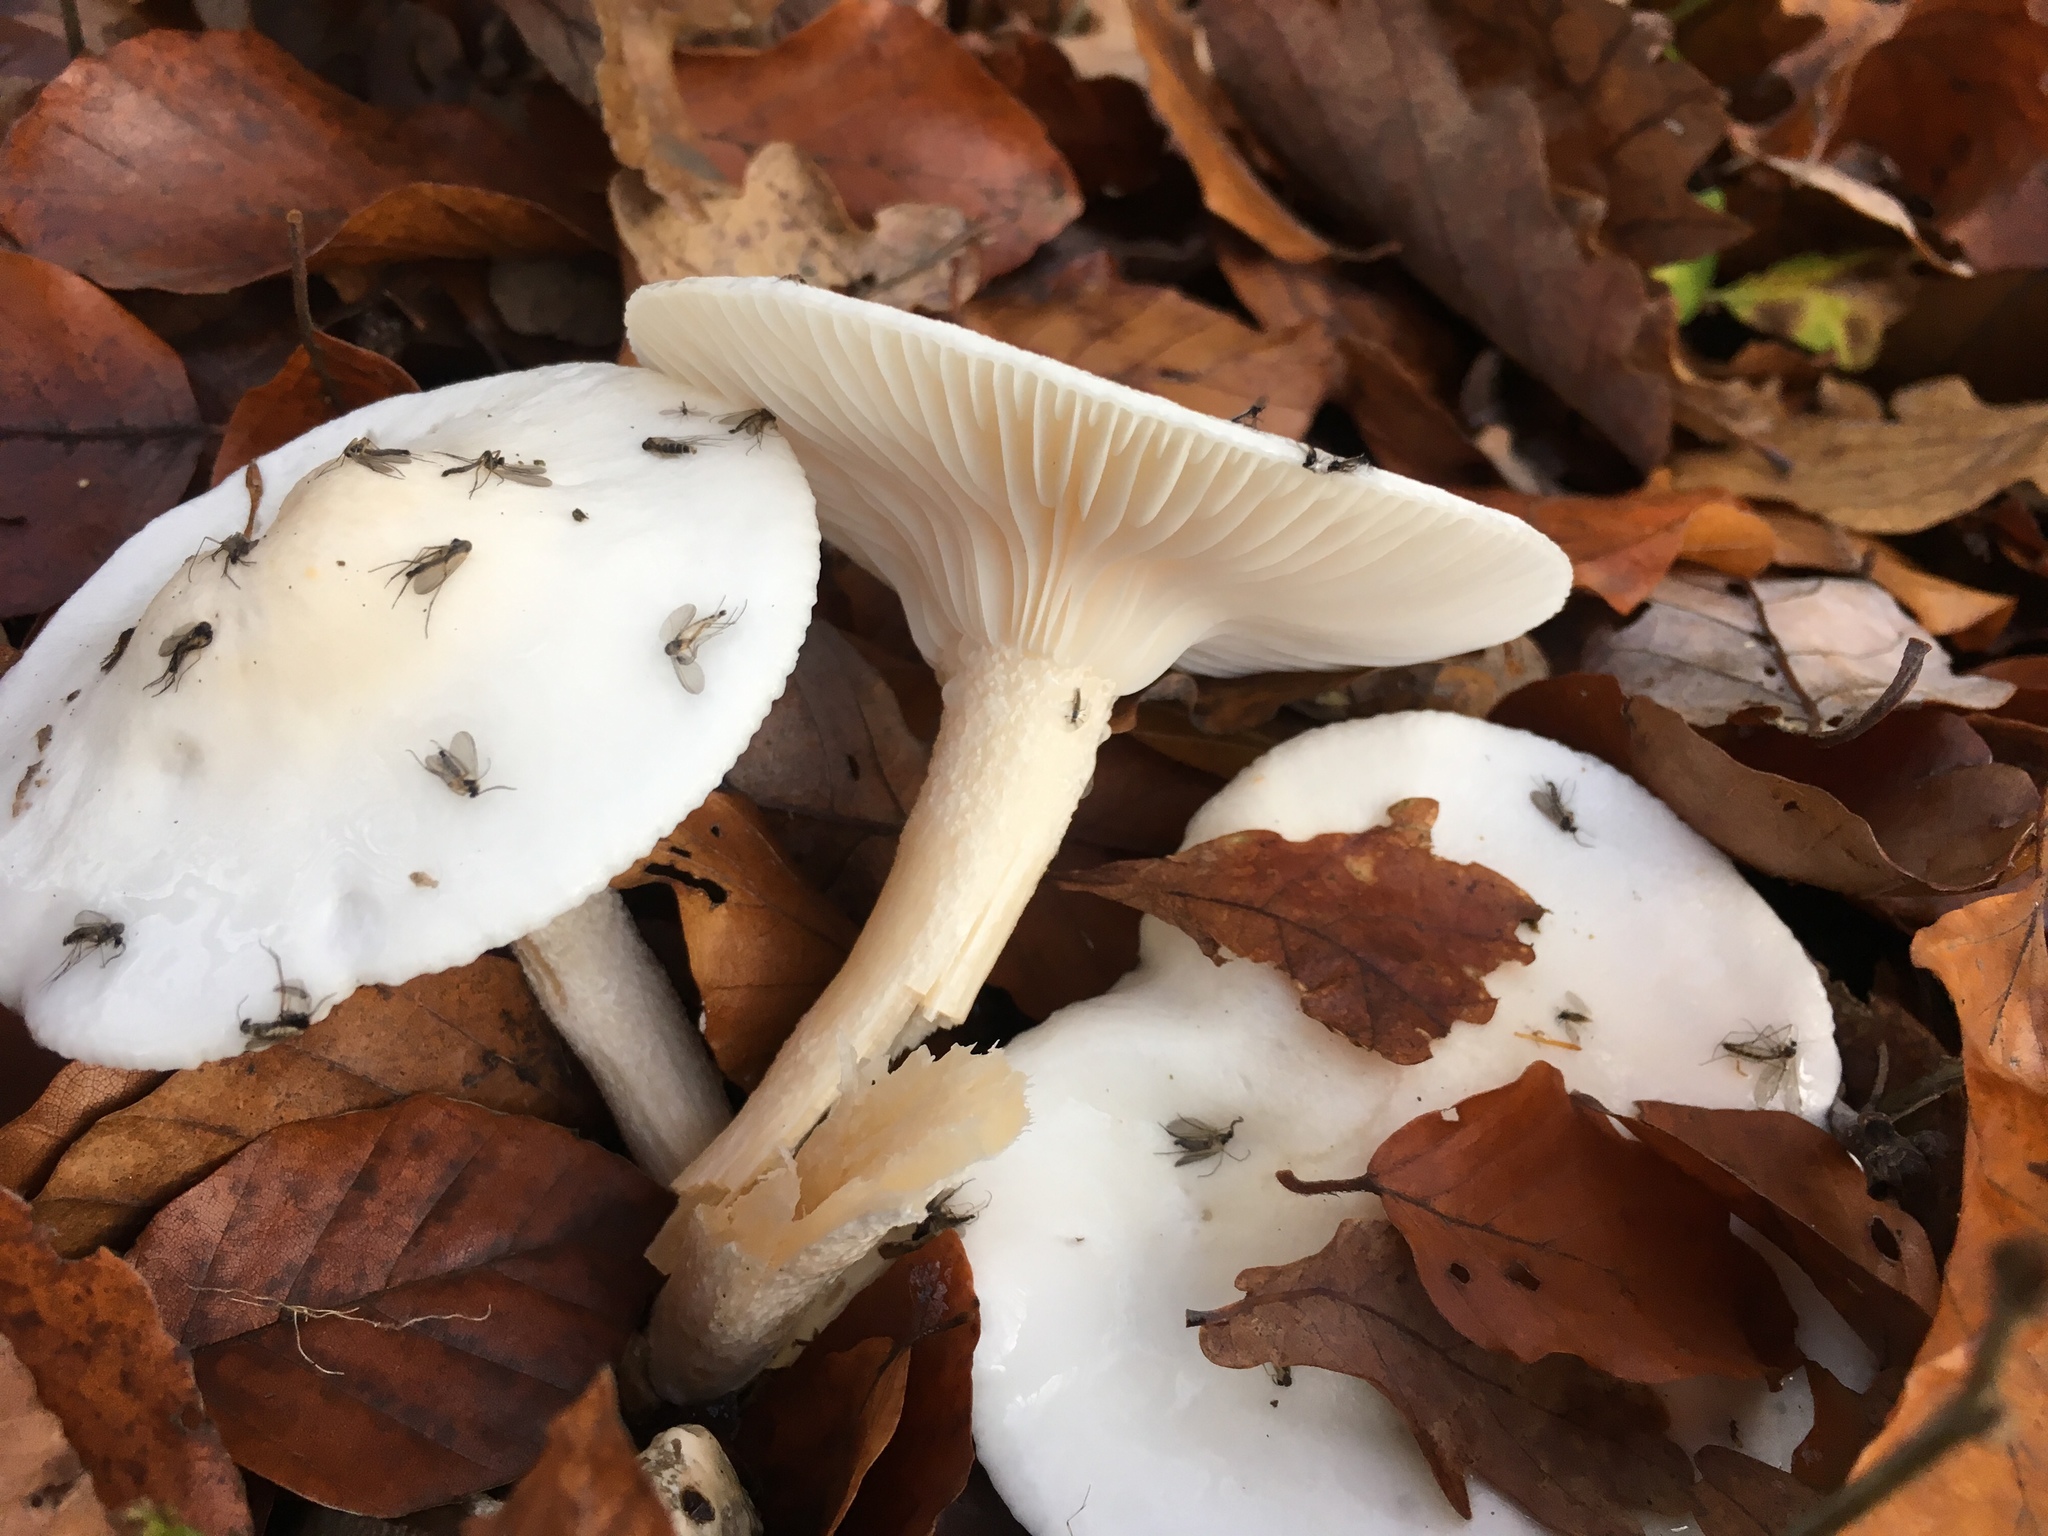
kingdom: Fungi
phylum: Basidiomycota
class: Agaricomycetes
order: Agaricales
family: Hygrophoraceae
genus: Hygrophorus
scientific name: Hygrophorus eburneus
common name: Ivory wax-cap
